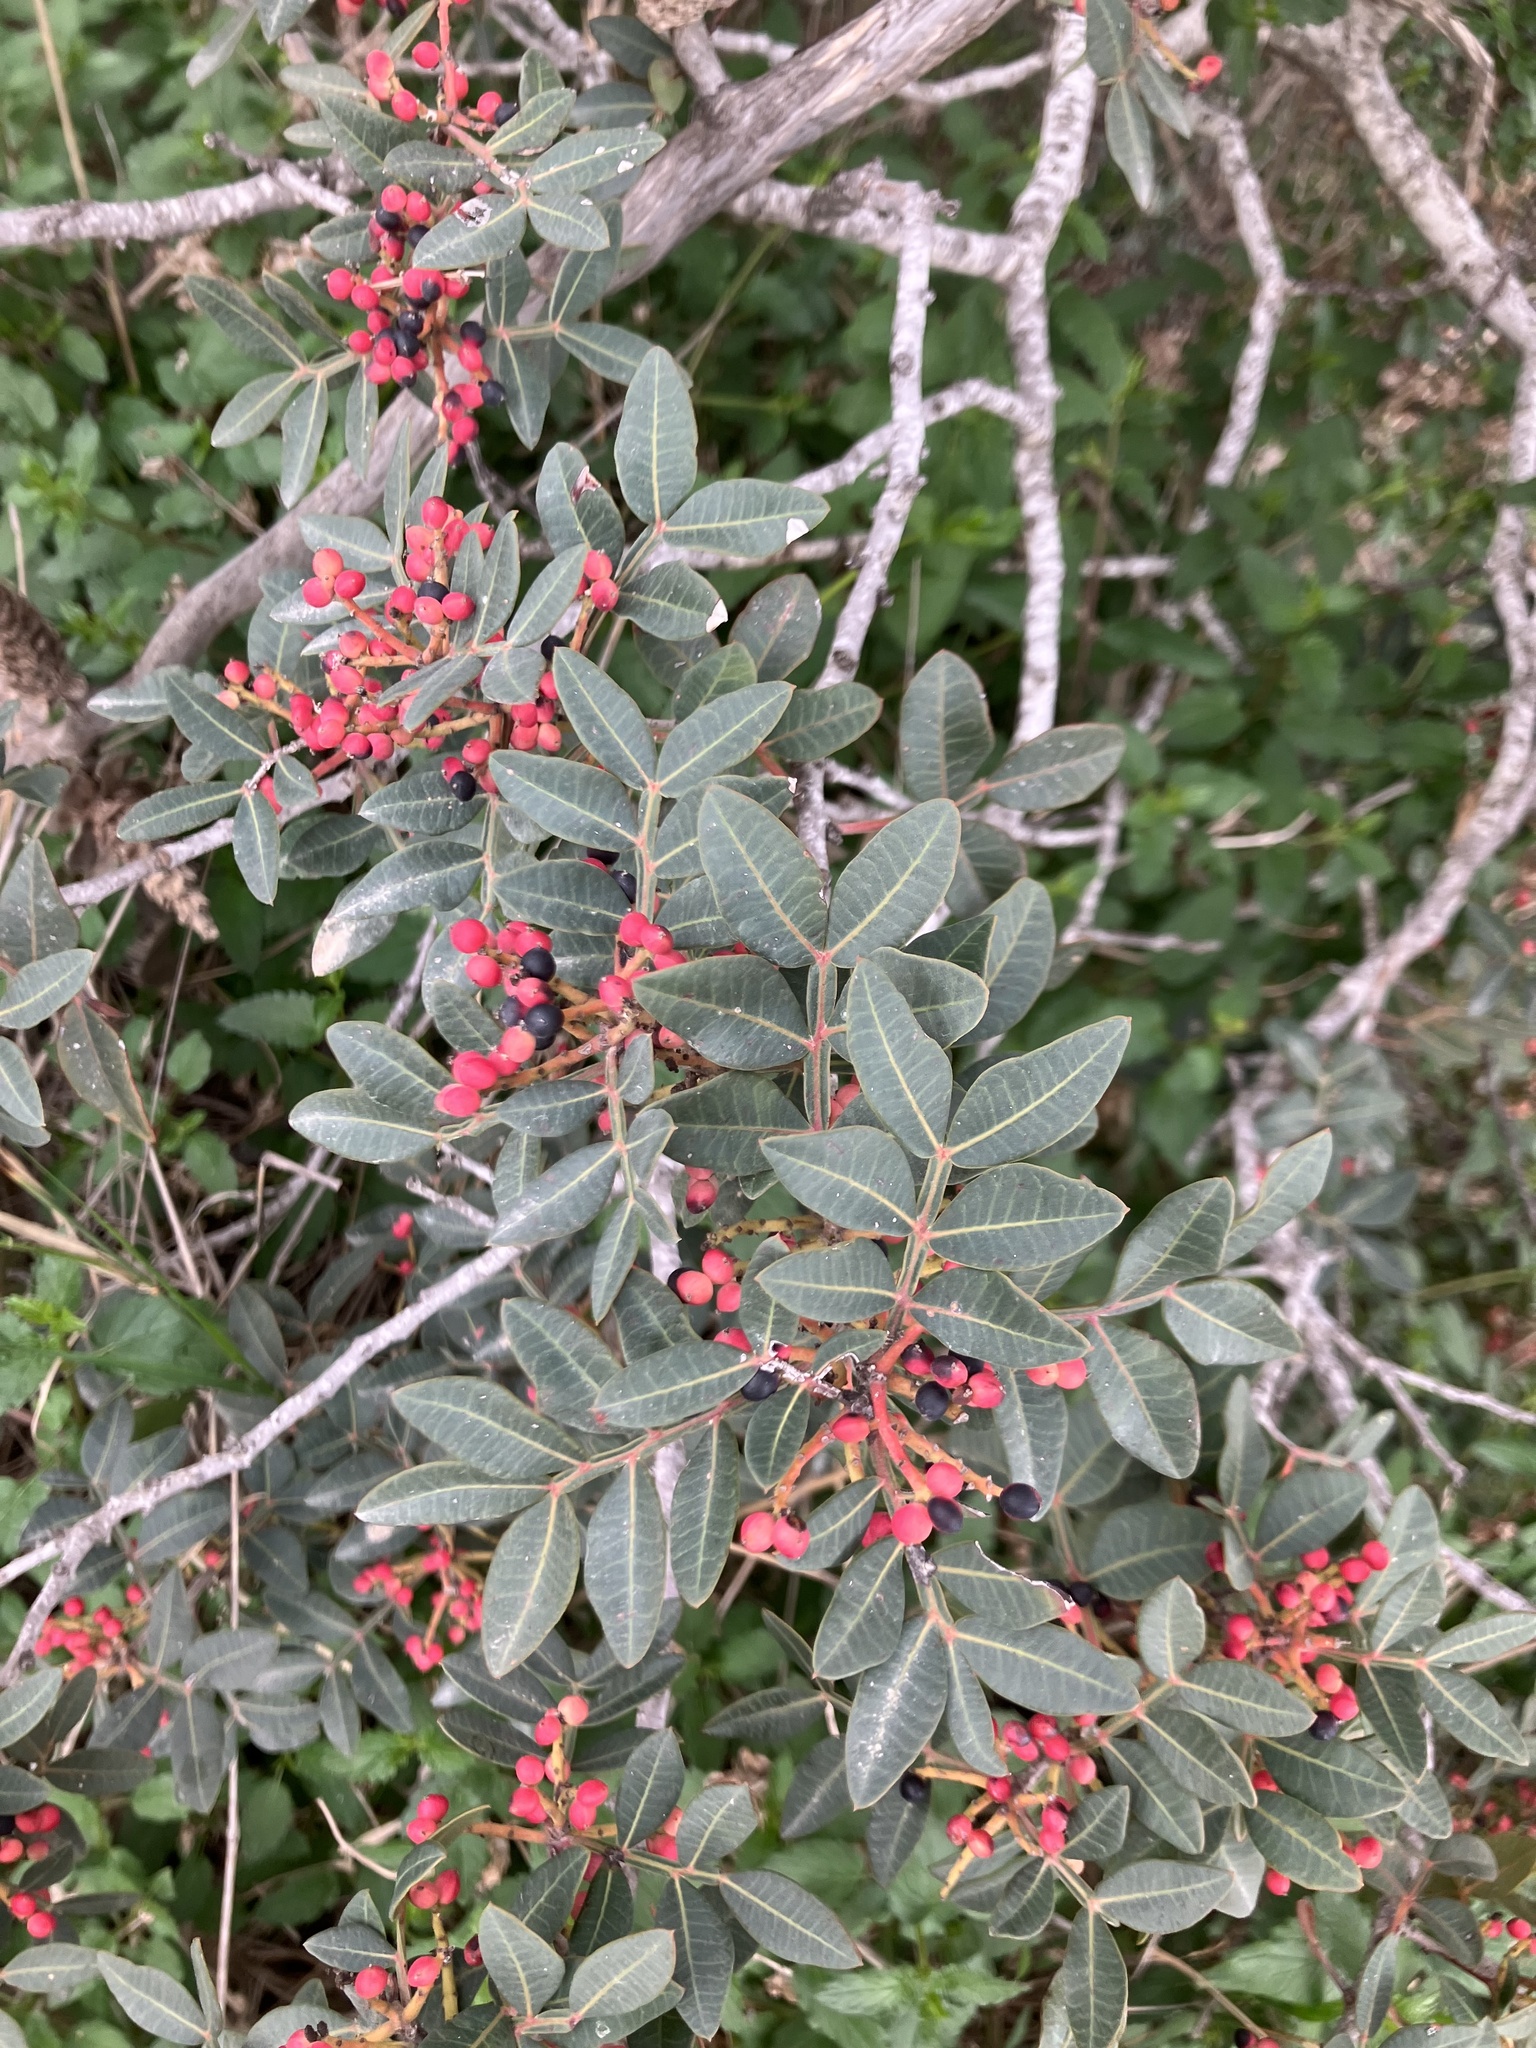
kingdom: Plantae
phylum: Tracheophyta
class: Magnoliopsida
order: Sapindales
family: Anacardiaceae
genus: Pistacia
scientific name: Pistacia lentiscus
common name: Lentisk
